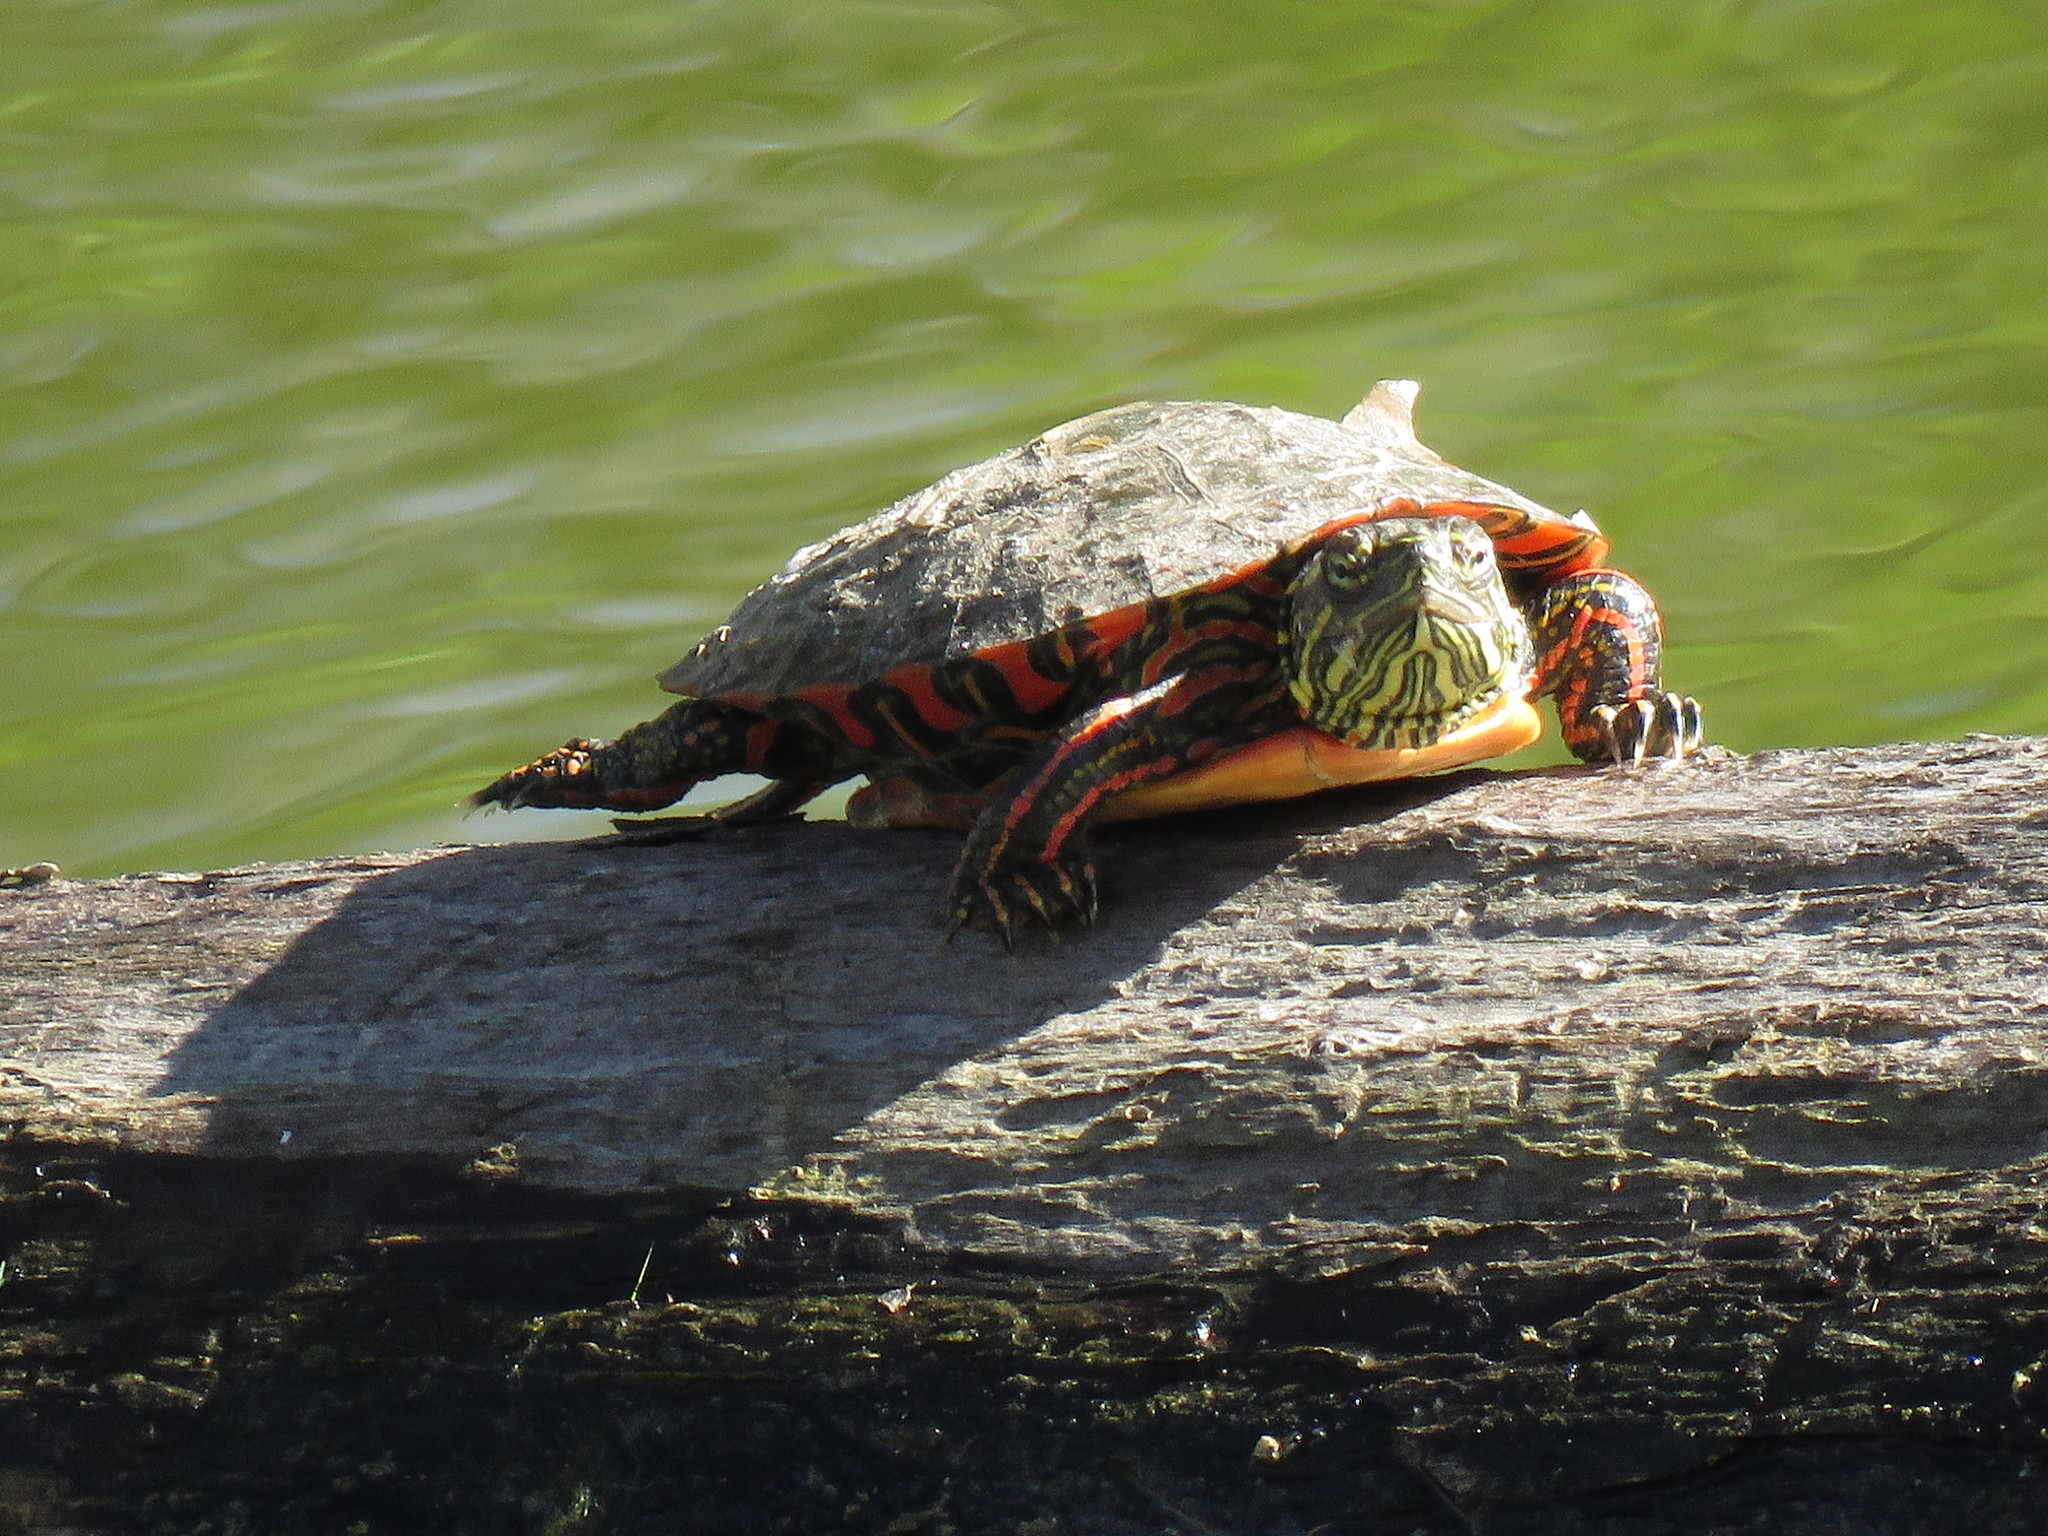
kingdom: Animalia
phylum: Chordata
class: Testudines
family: Emydidae
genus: Chrysemys
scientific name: Chrysemys picta
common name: Painted turtle
